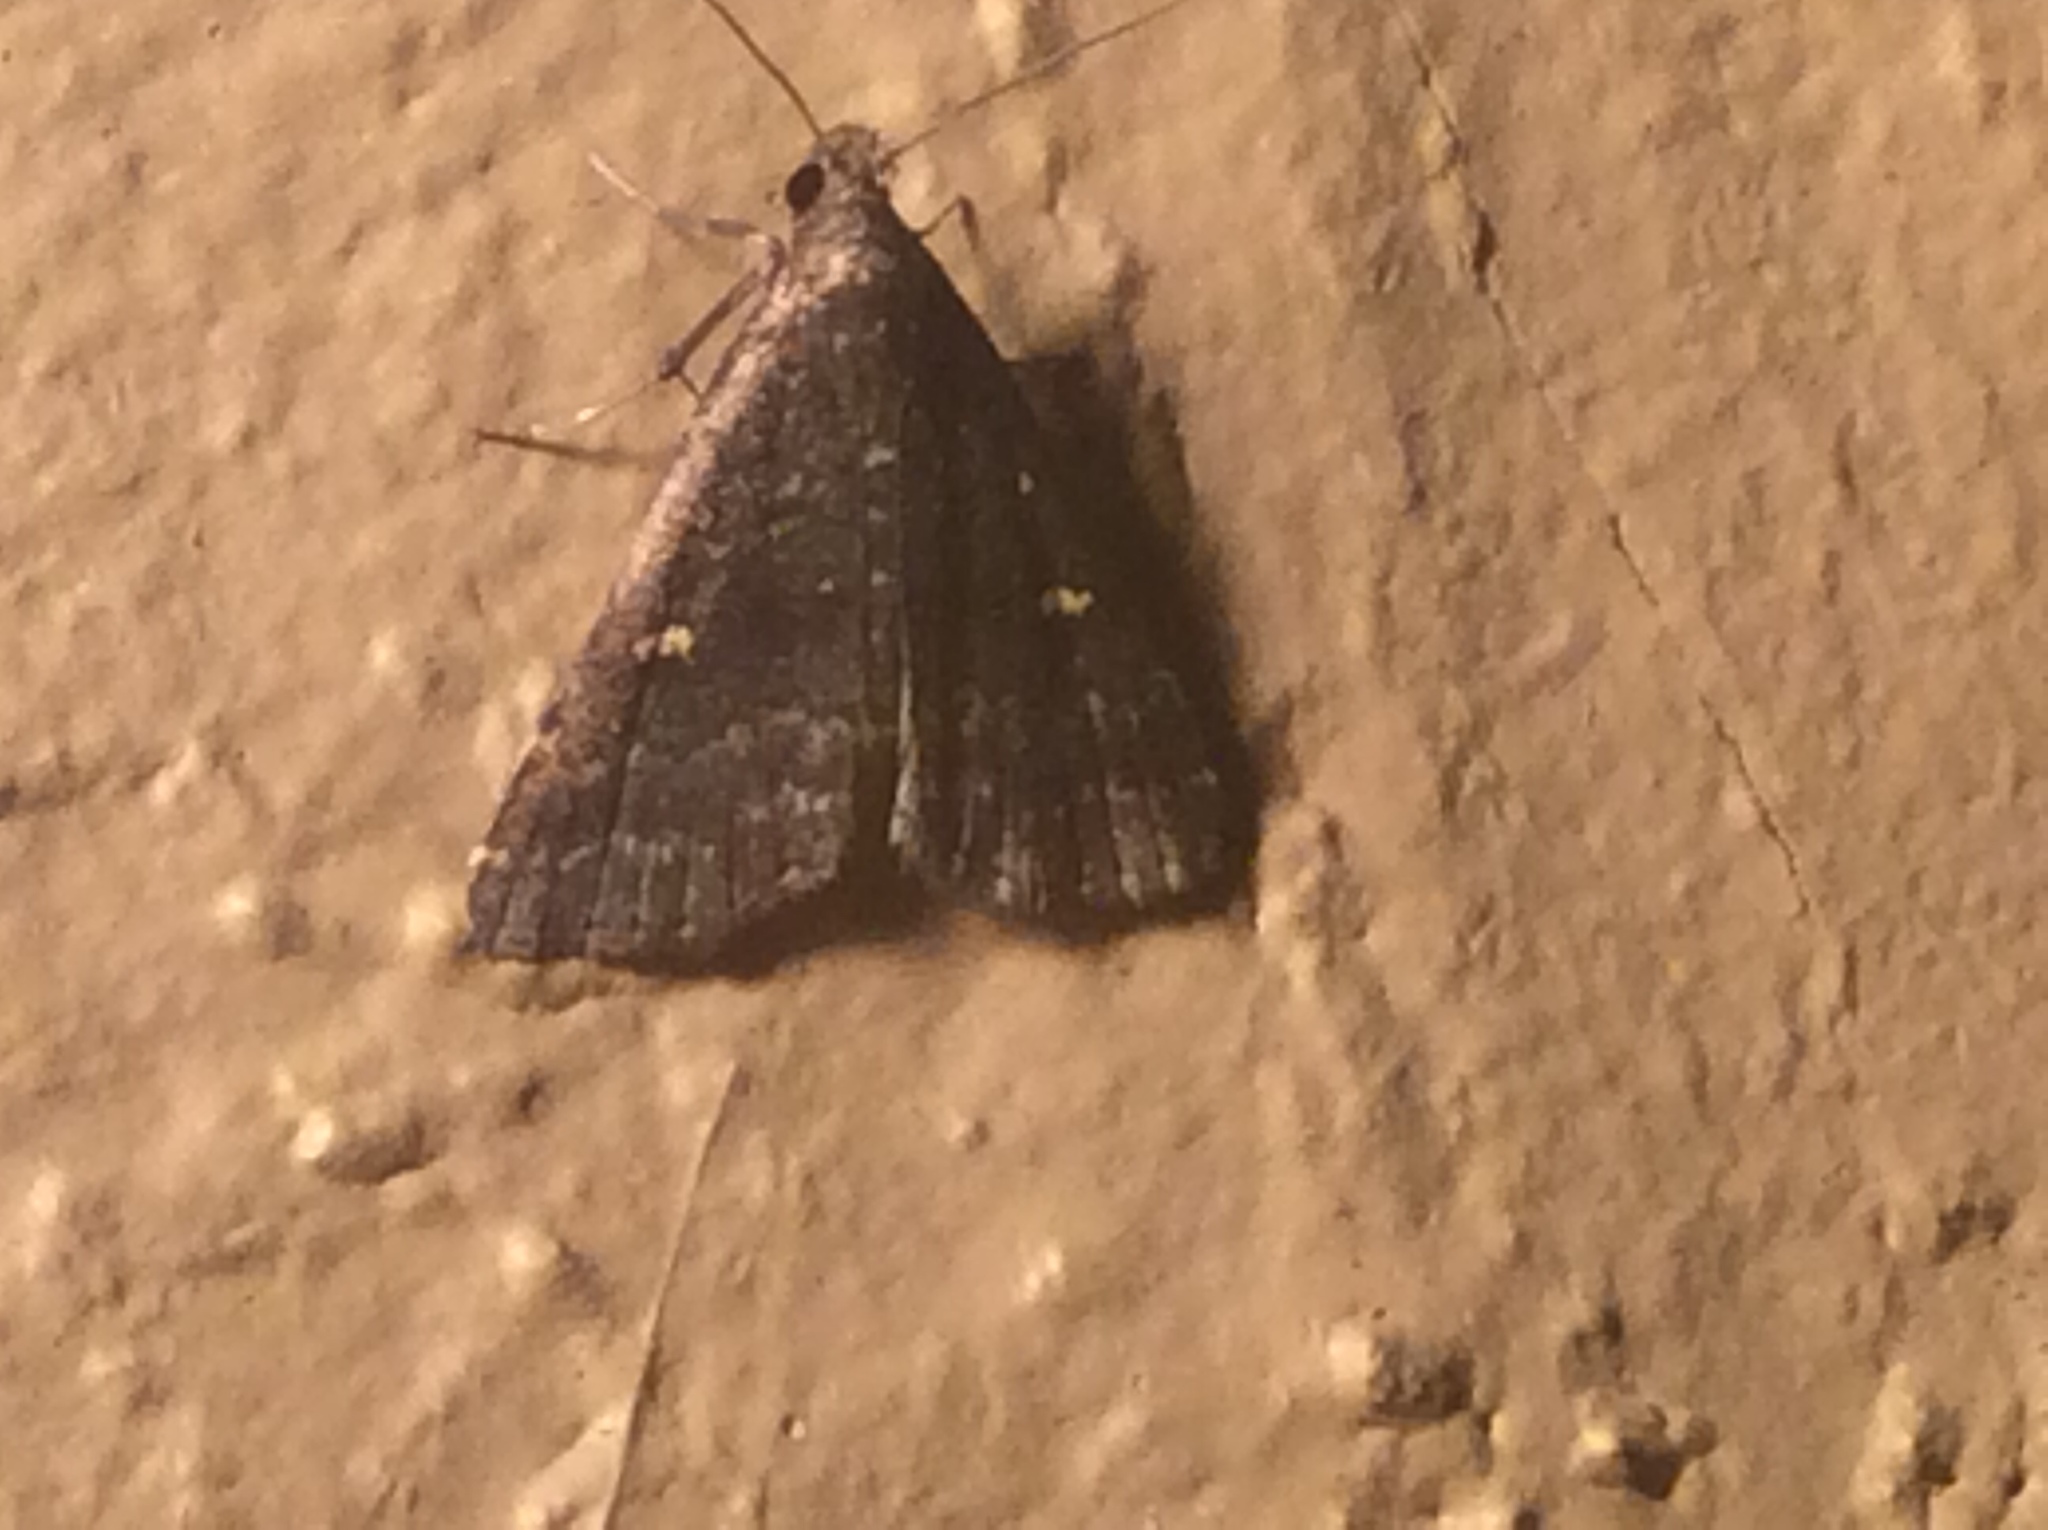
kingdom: Animalia
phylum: Arthropoda
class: Insecta
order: Lepidoptera
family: Erebidae
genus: Tetanolita
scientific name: Tetanolita mynesalis
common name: Smoky tetanolita moth
